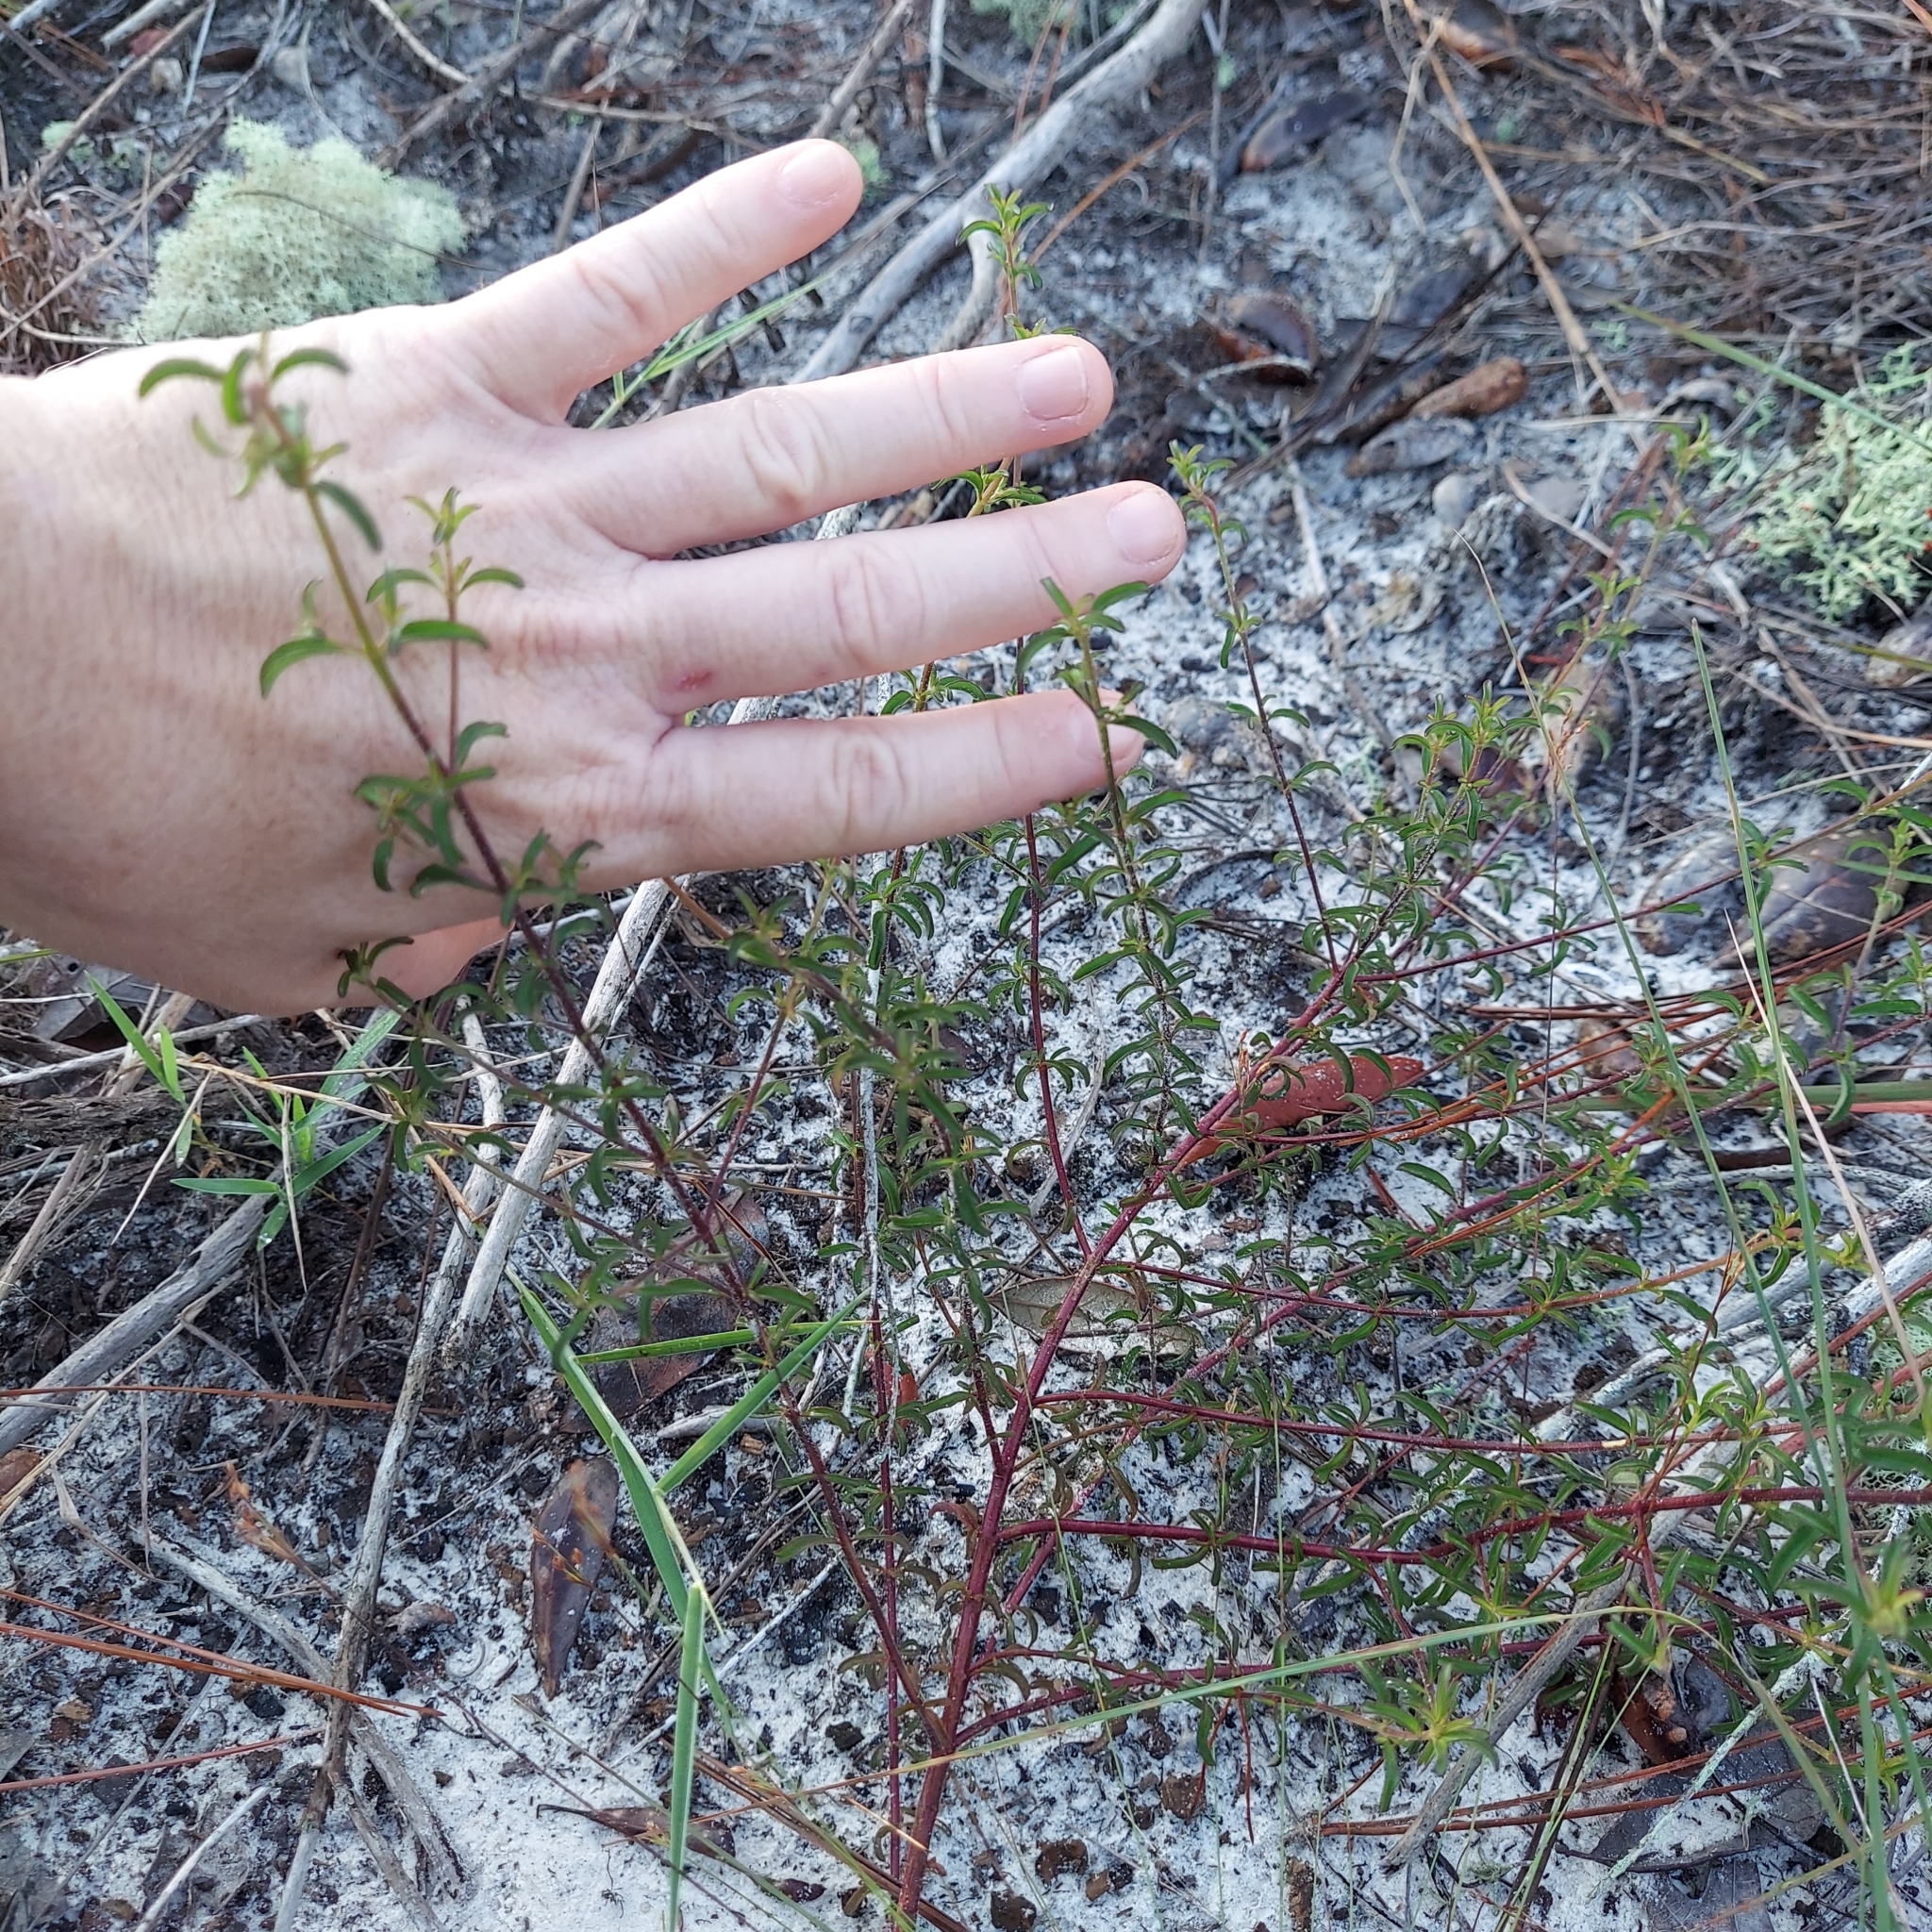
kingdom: Plantae
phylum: Tracheophyta
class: Magnoliopsida
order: Lamiales
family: Lamiaceae
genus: Trichostema
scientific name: Trichostema microphyllum
